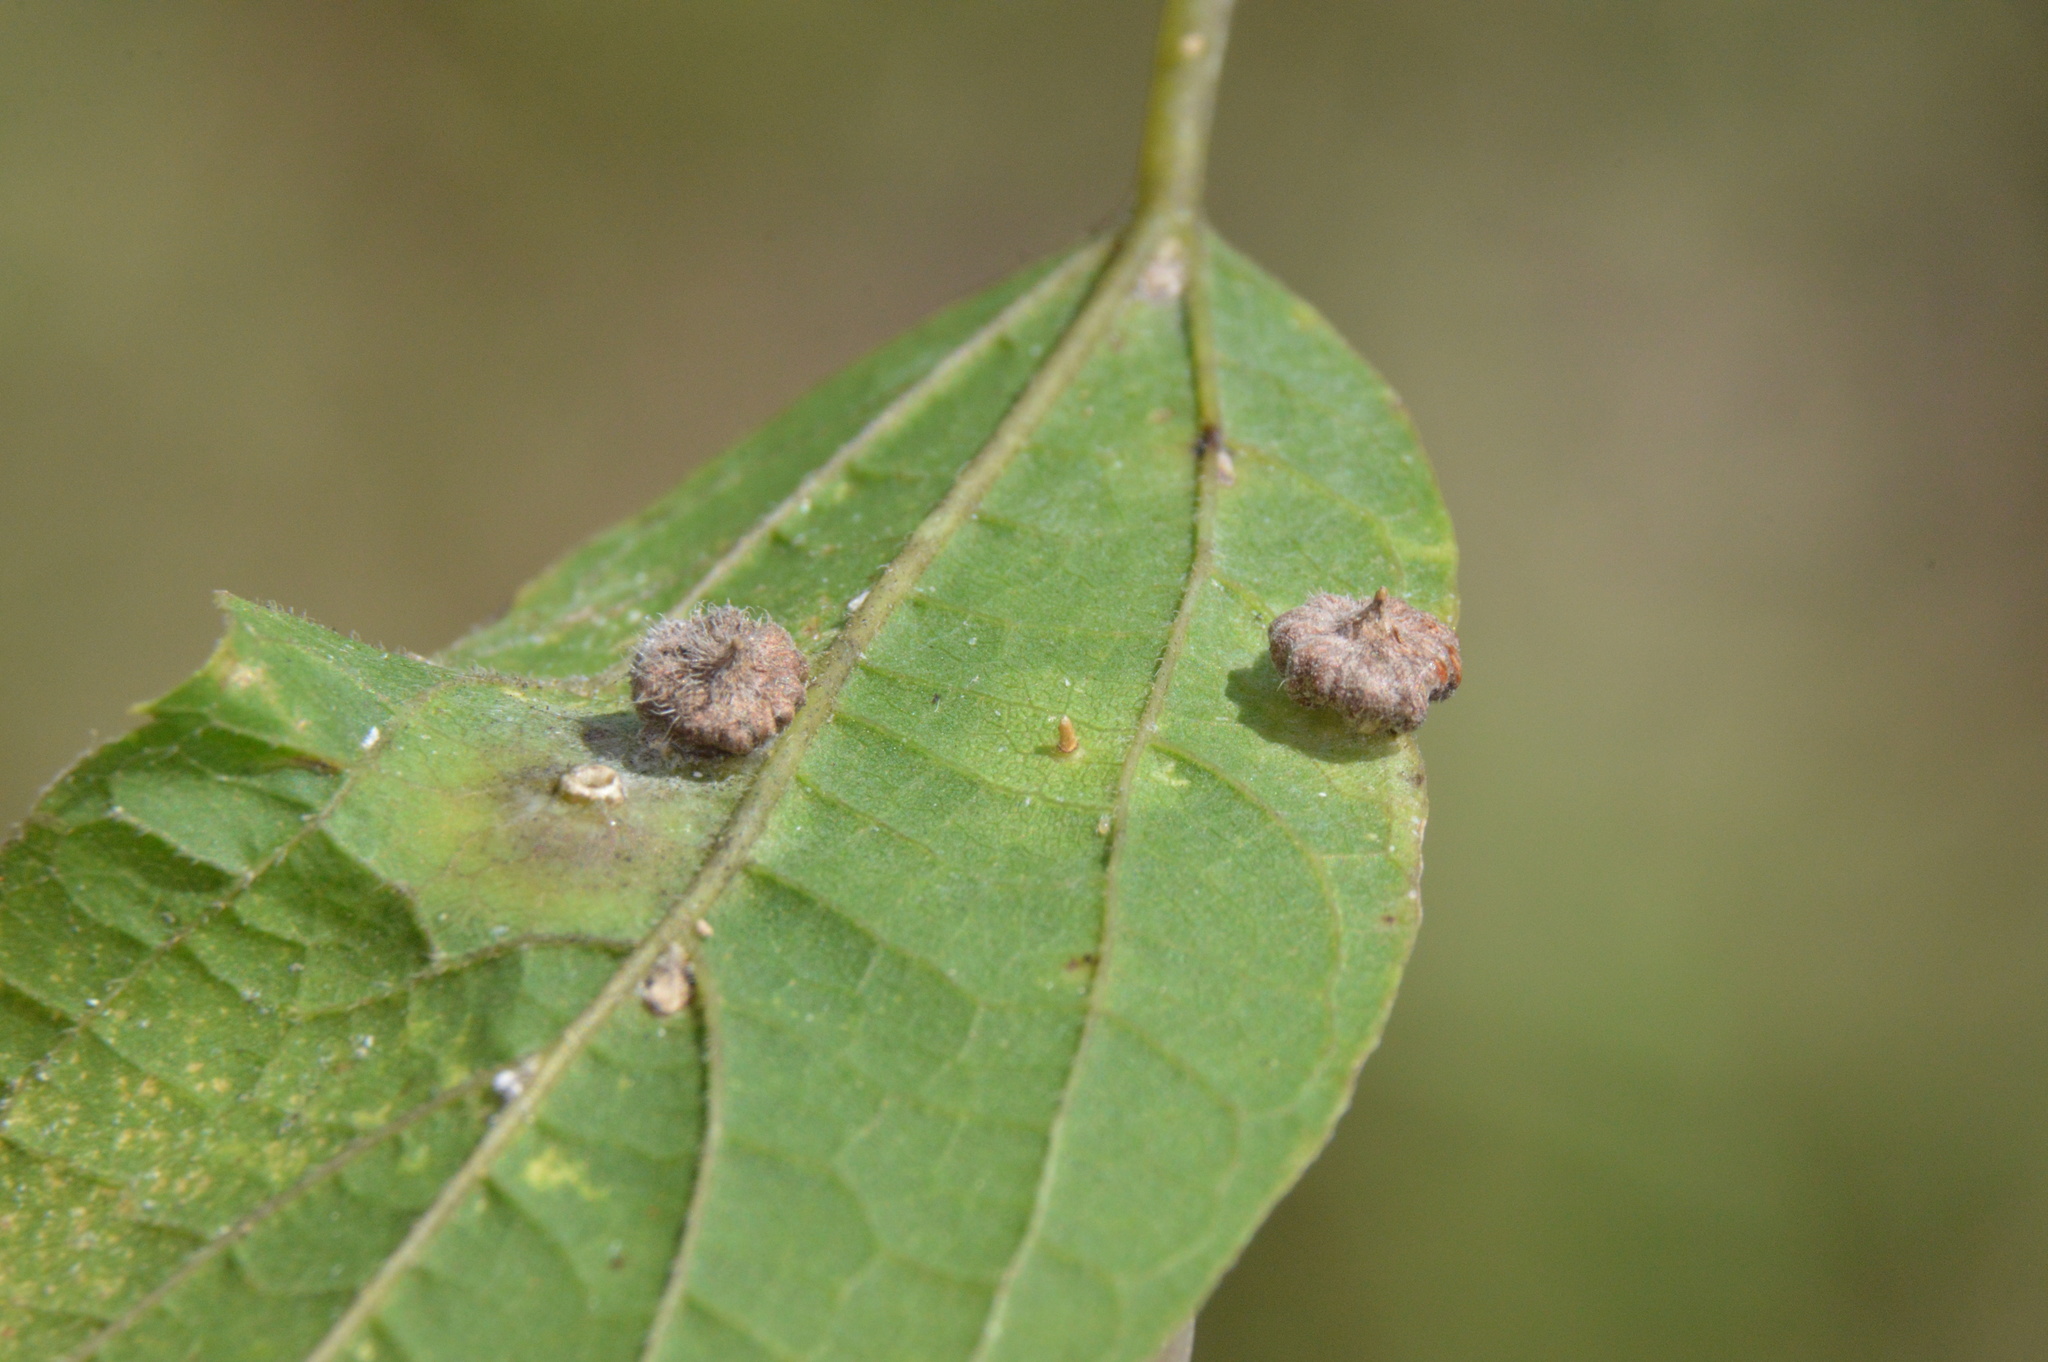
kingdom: Animalia
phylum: Arthropoda
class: Insecta
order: Diptera
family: Cecidomyiidae
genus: Celticecis
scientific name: Celticecis capsularis
